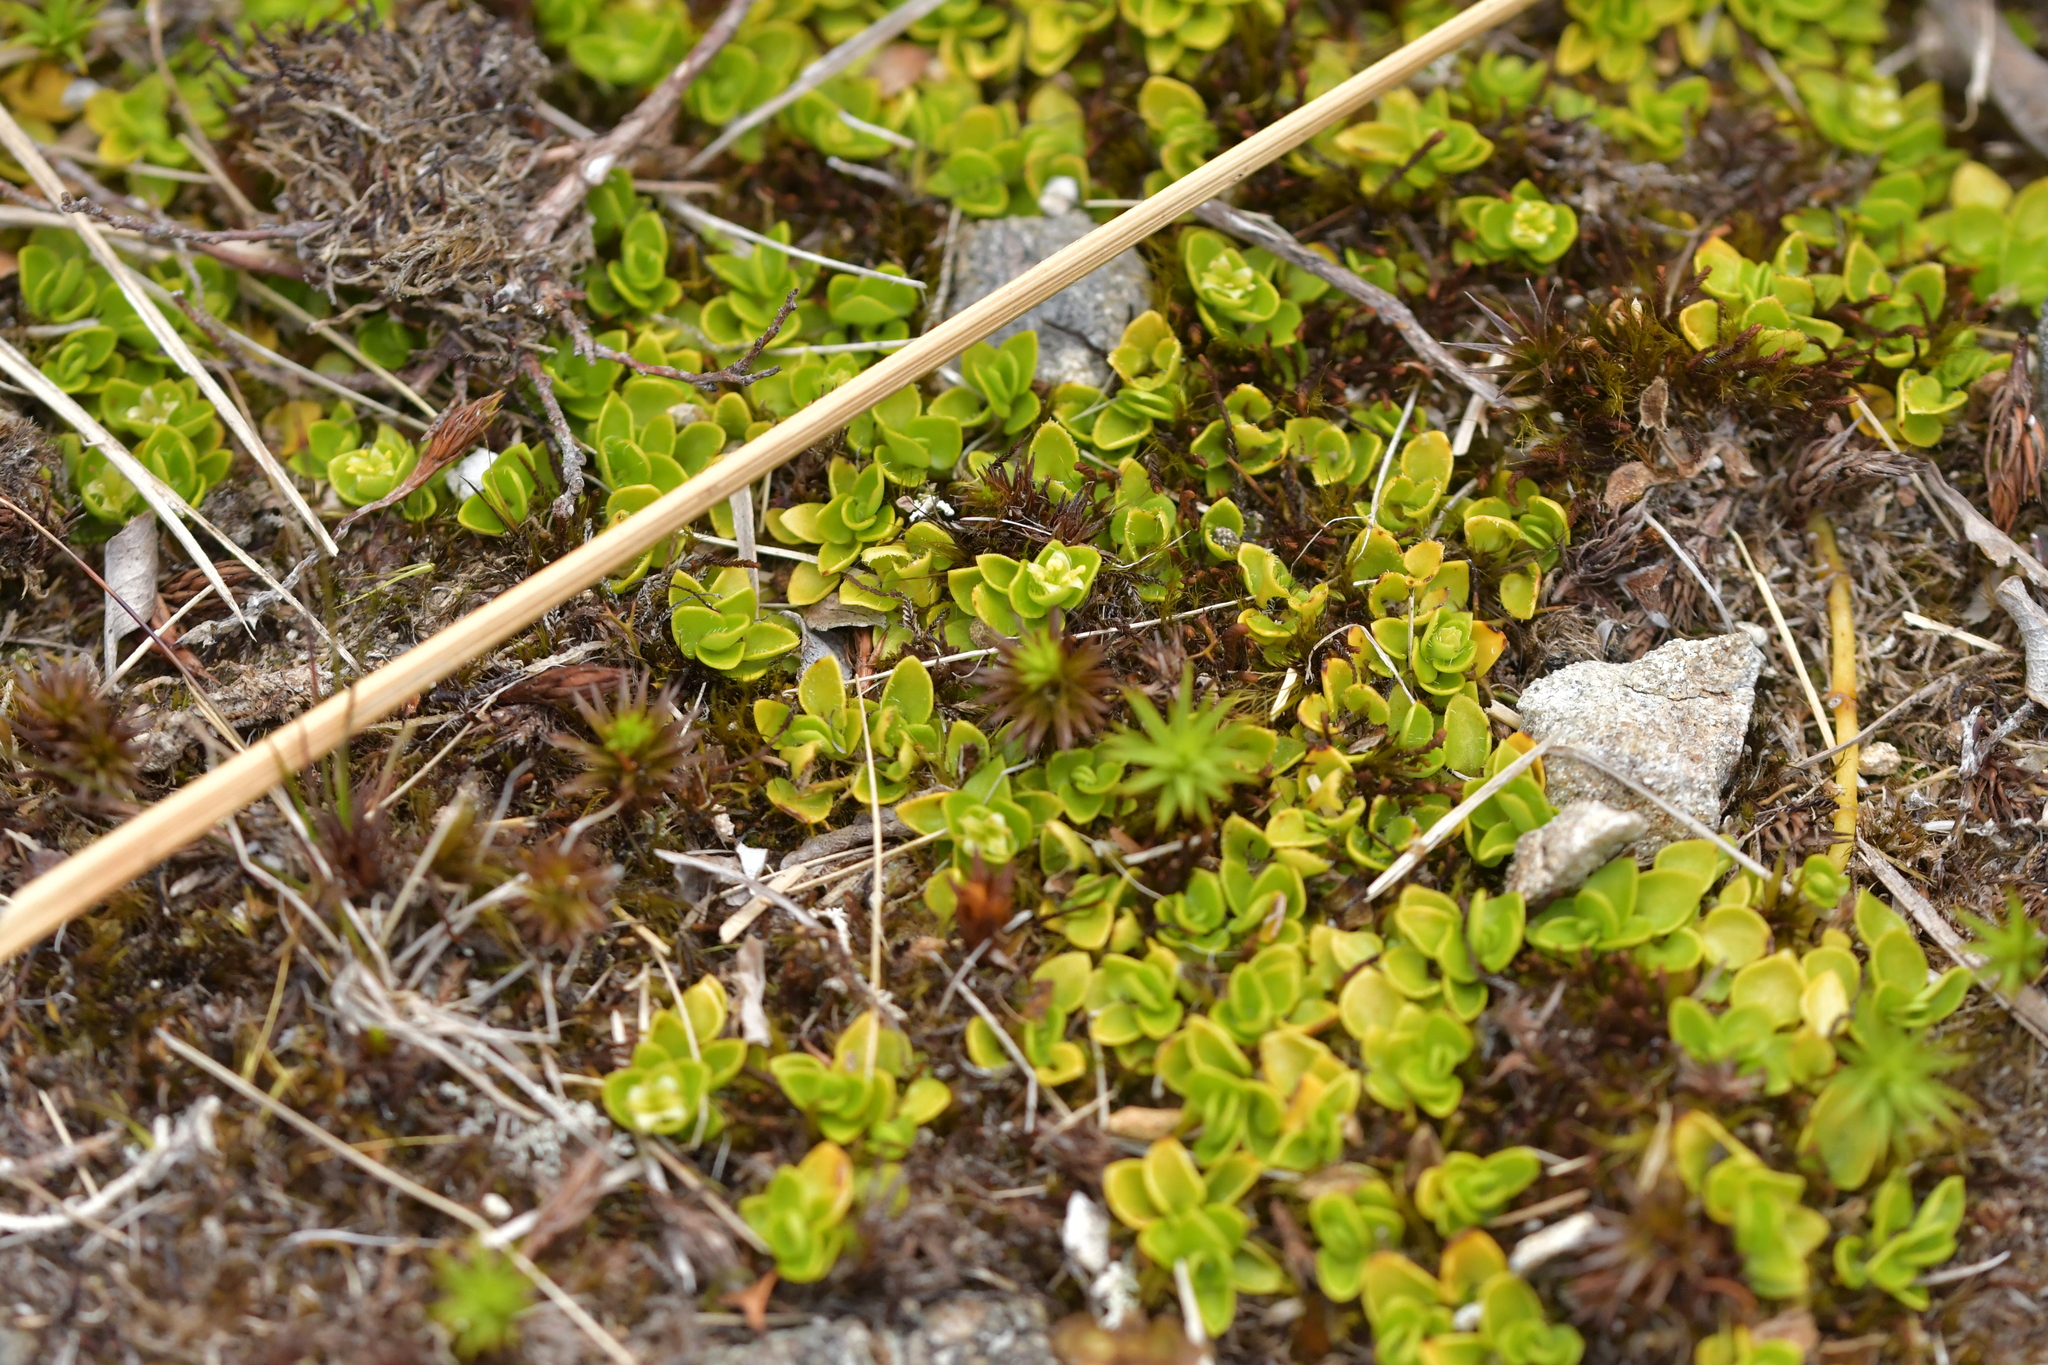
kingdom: Plantae
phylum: Tracheophyta
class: Magnoliopsida
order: Gentianales
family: Rubiaceae
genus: Nertera
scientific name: Nertera ciliata
